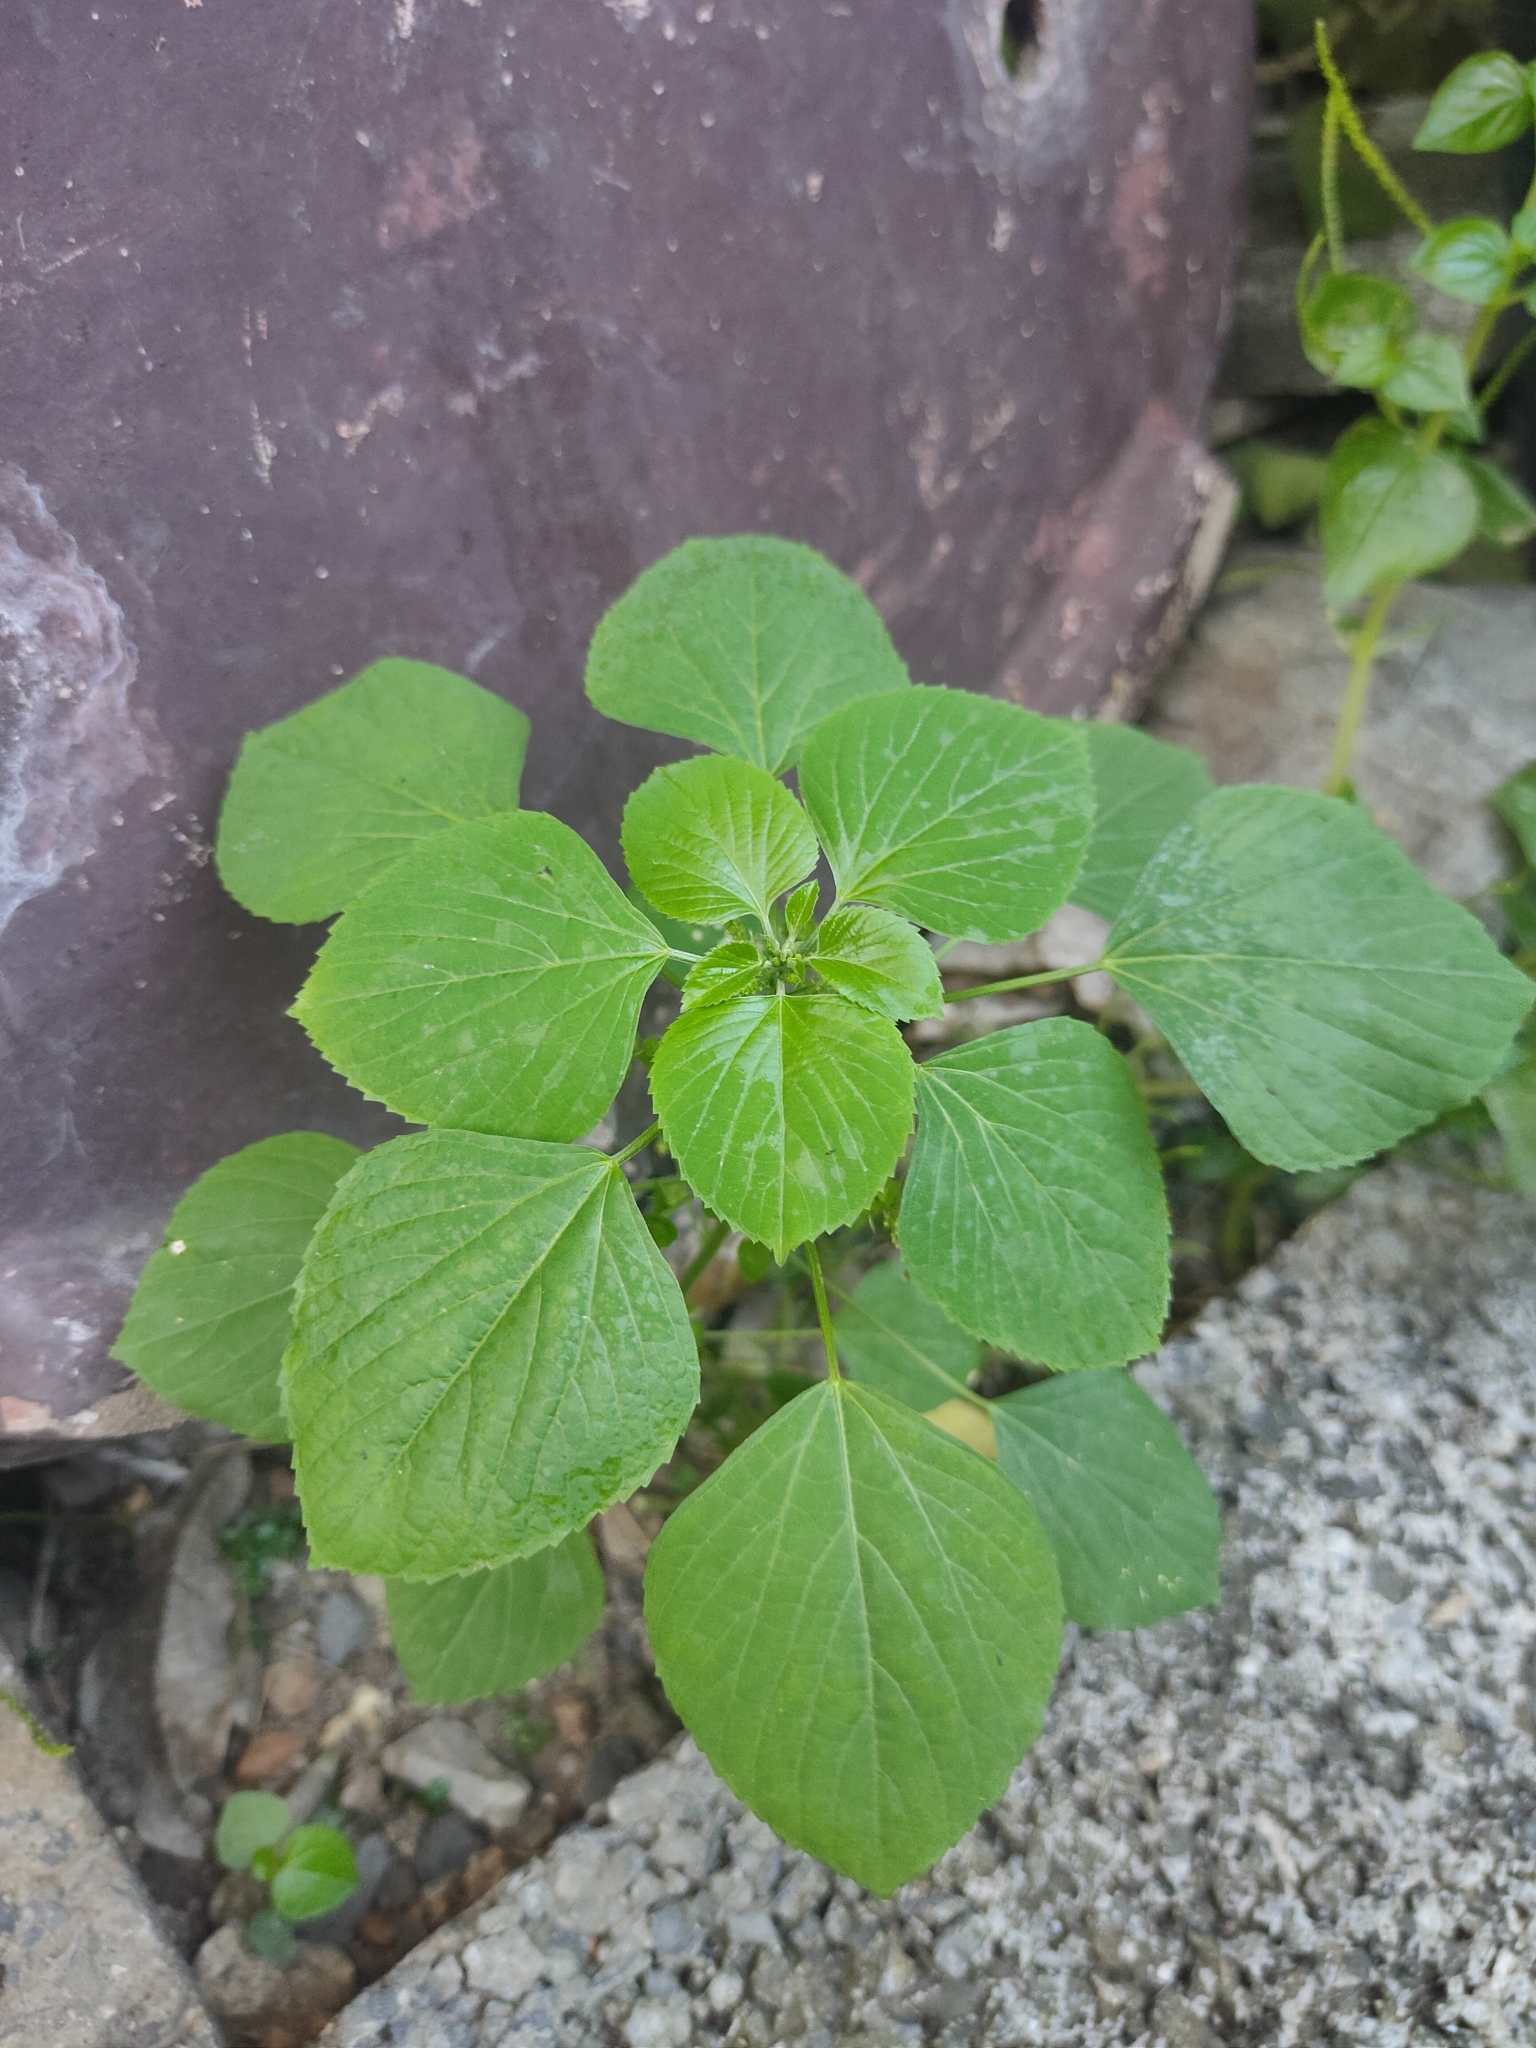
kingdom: Plantae
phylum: Tracheophyta
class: Magnoliopsida
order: Malpighiales
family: Euphorbiaceae
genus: Acalypha
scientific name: Acalypha indica
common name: Indian acalypha
